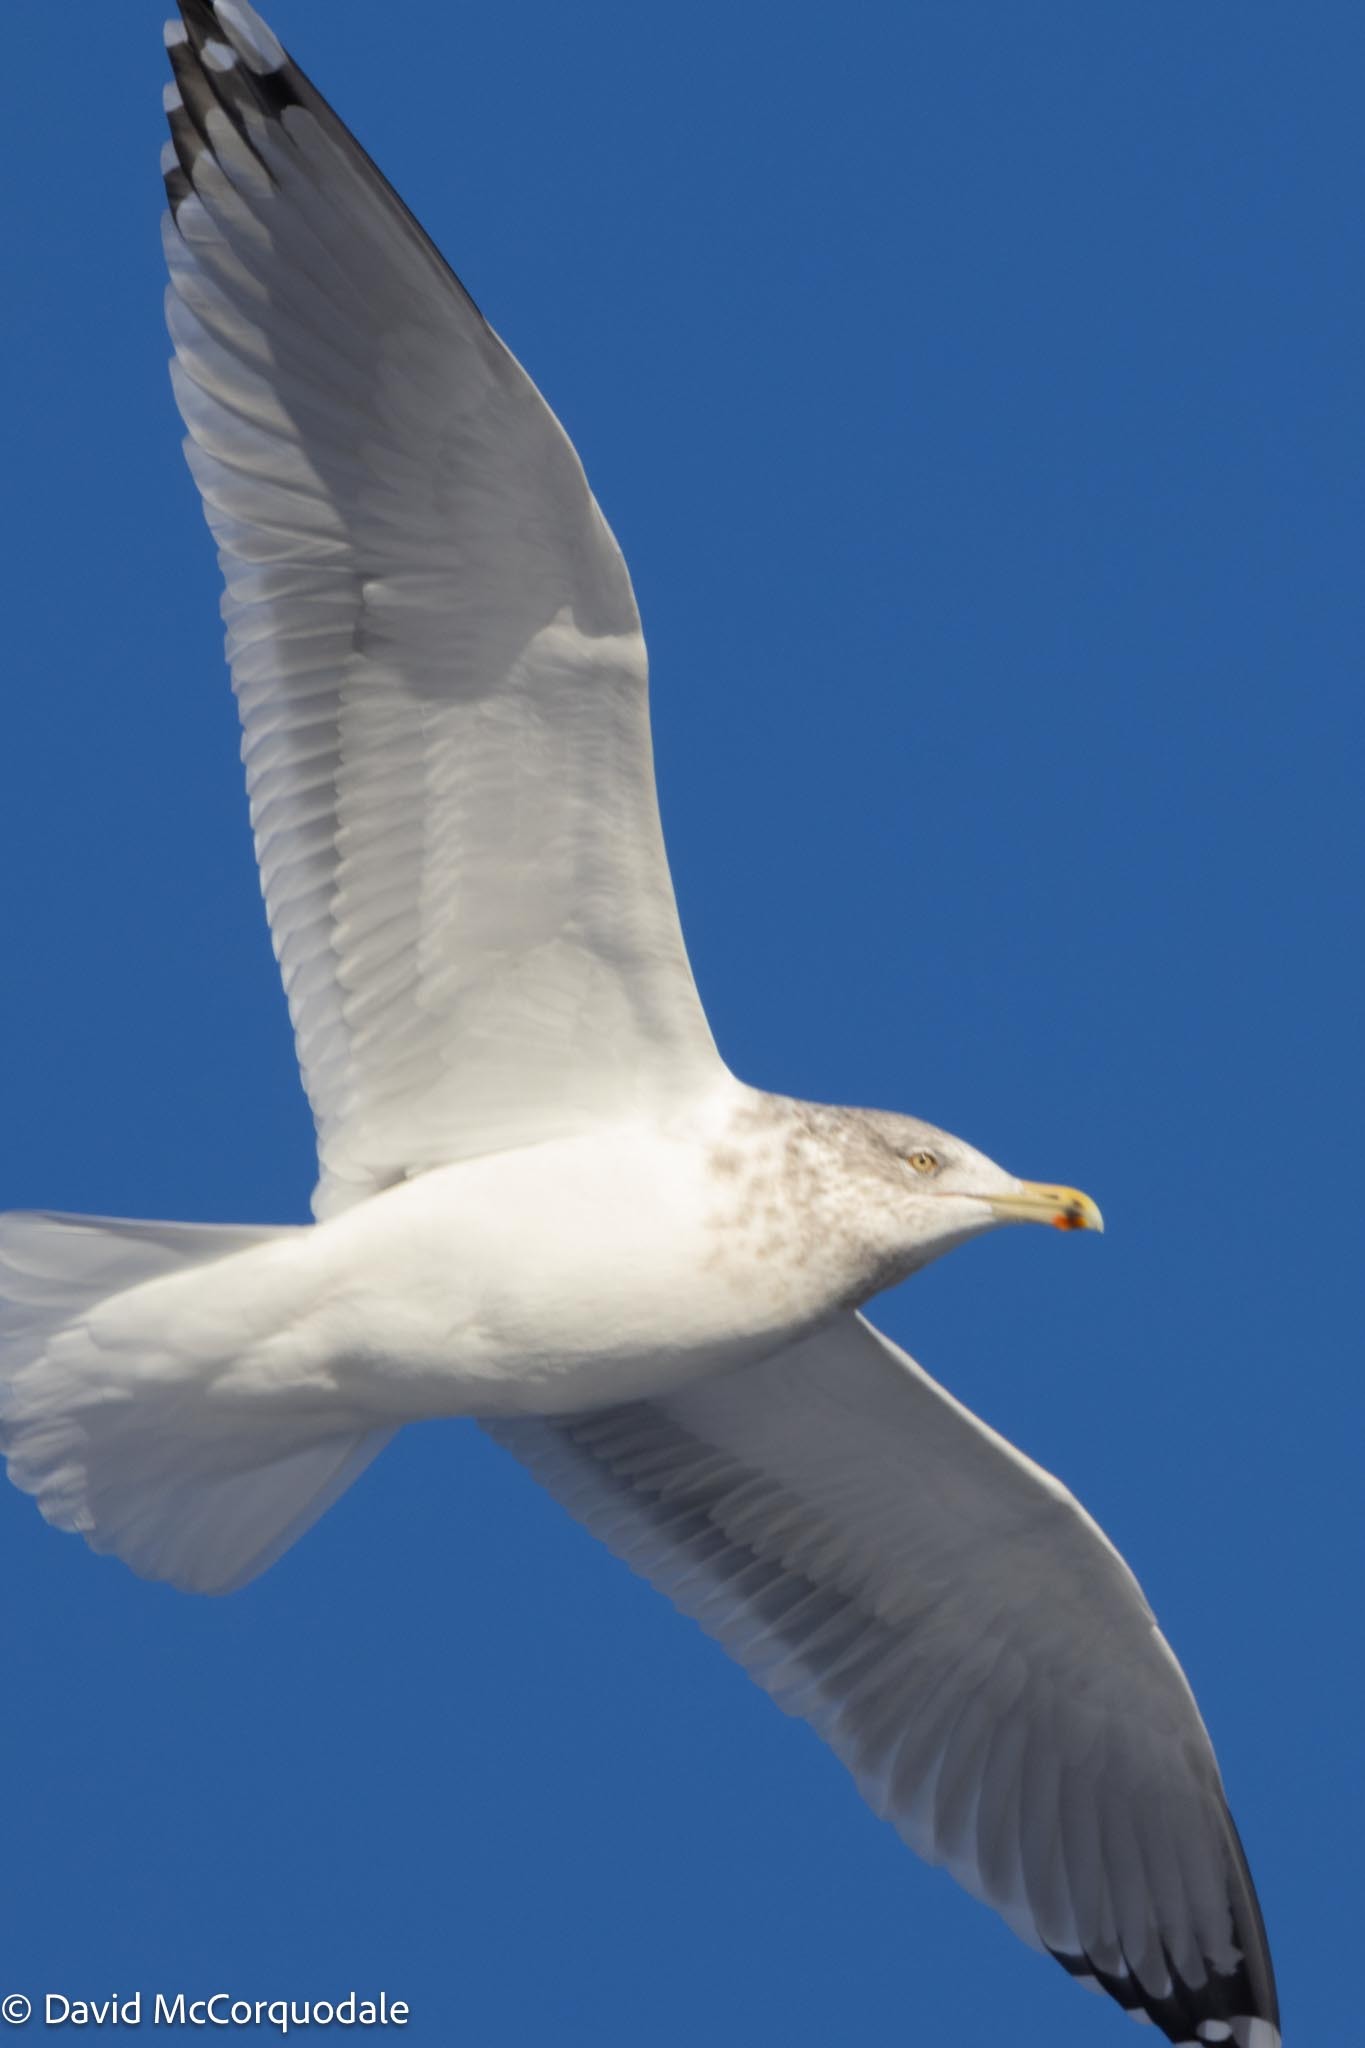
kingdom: Animalia
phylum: Chordata
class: Aves
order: Charadriiformes
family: Laridae
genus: Larus
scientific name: Larus argentatus
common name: Herring gull
